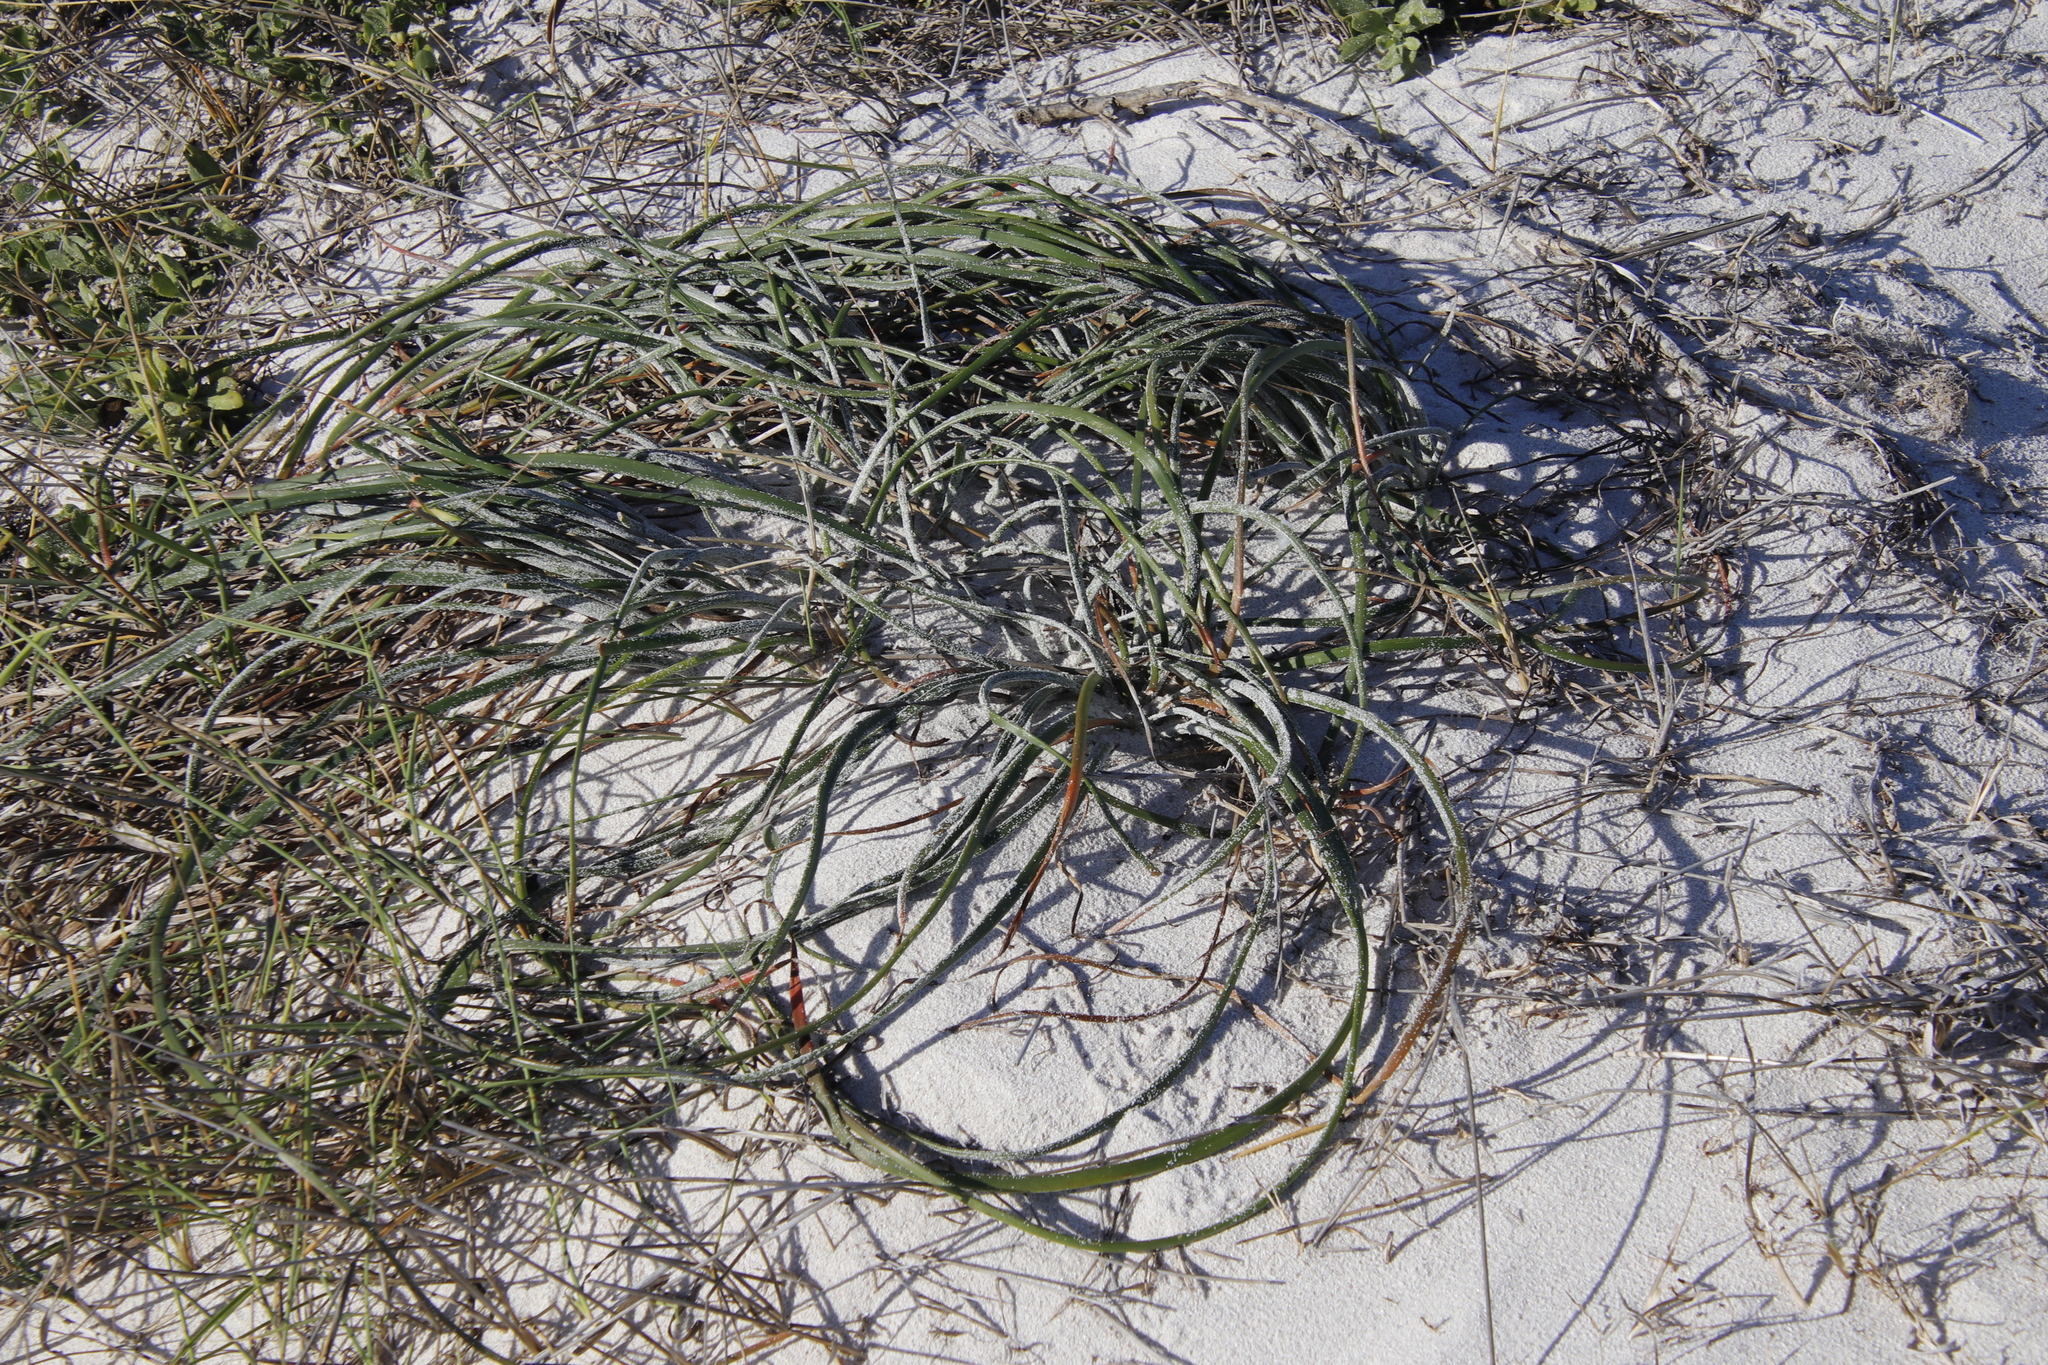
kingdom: Plantae
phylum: Tracheophyta
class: Liliopsida
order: Asparagales
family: Asphodelaceae
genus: Trachyandra
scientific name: Trachyandra divaricata
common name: Dune onionweed
